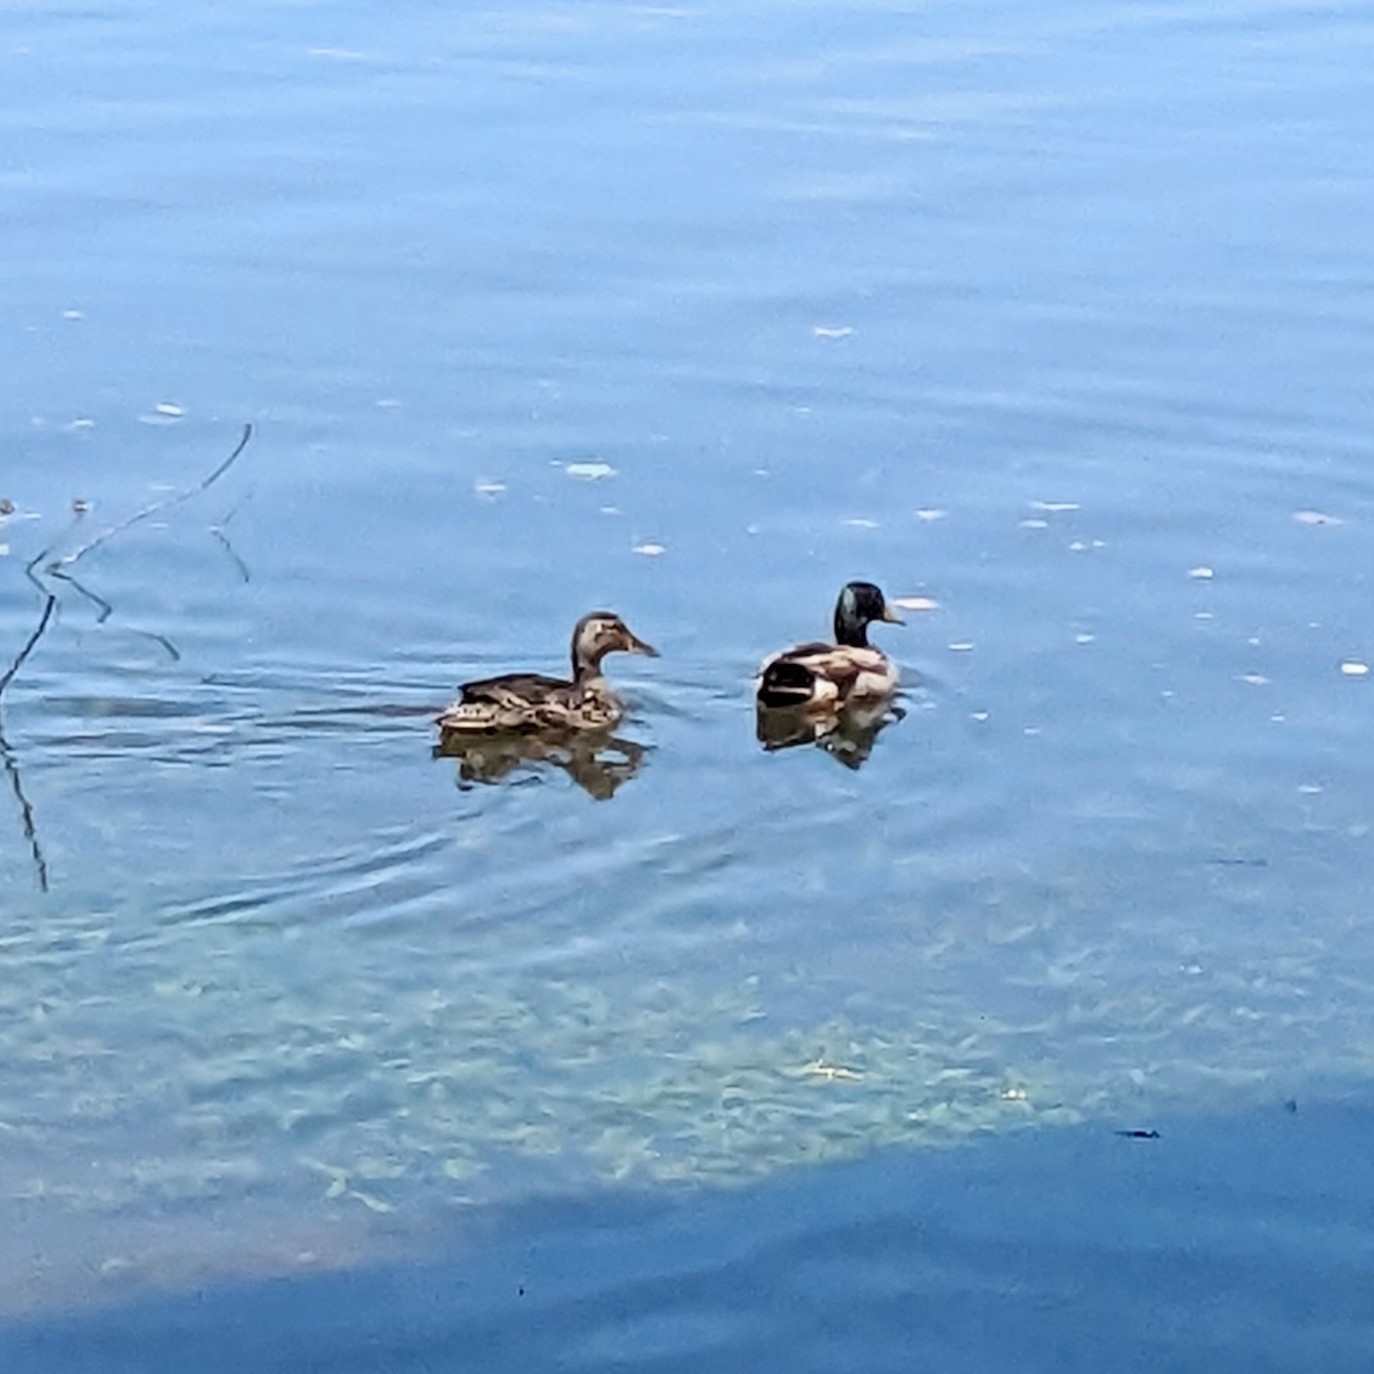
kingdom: Animalia
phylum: Chordata
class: Aves
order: Anseriformes
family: Anatidae
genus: Anas
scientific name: Anas platyrhynchos
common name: Mallard
